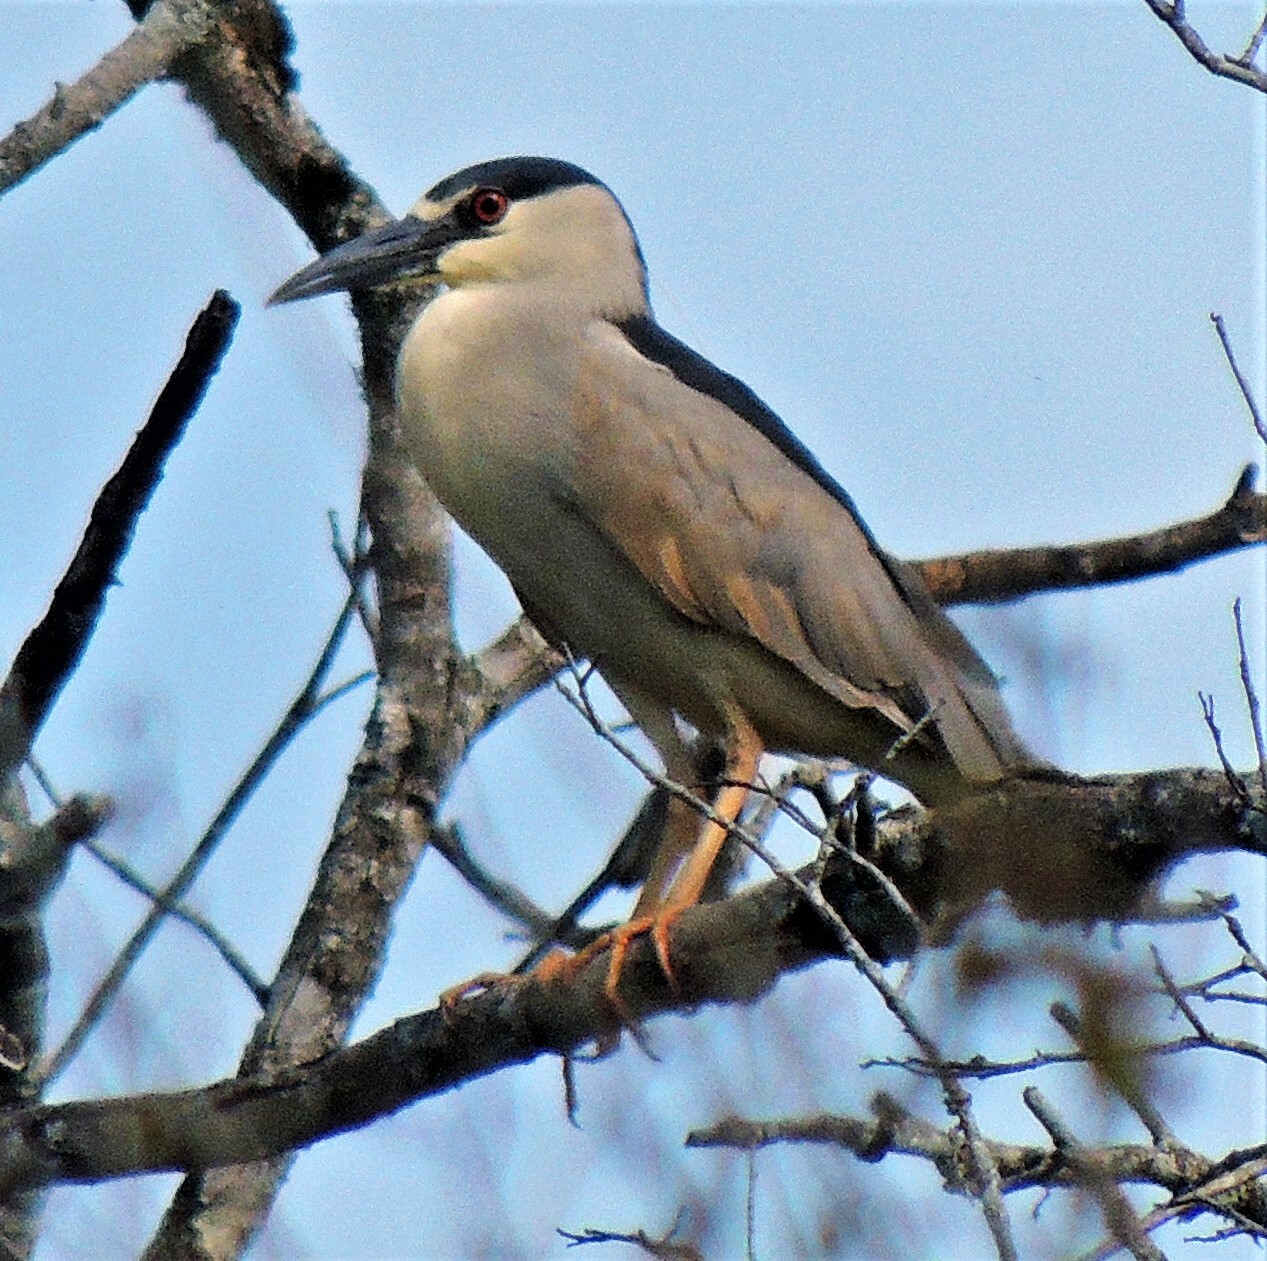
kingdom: Animalia
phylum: Chordata
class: Aves
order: Pelecaniformes
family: Ardeidae
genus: Nycticorax
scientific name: Nycticorax nycticorax
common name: Black-crowned night heron
